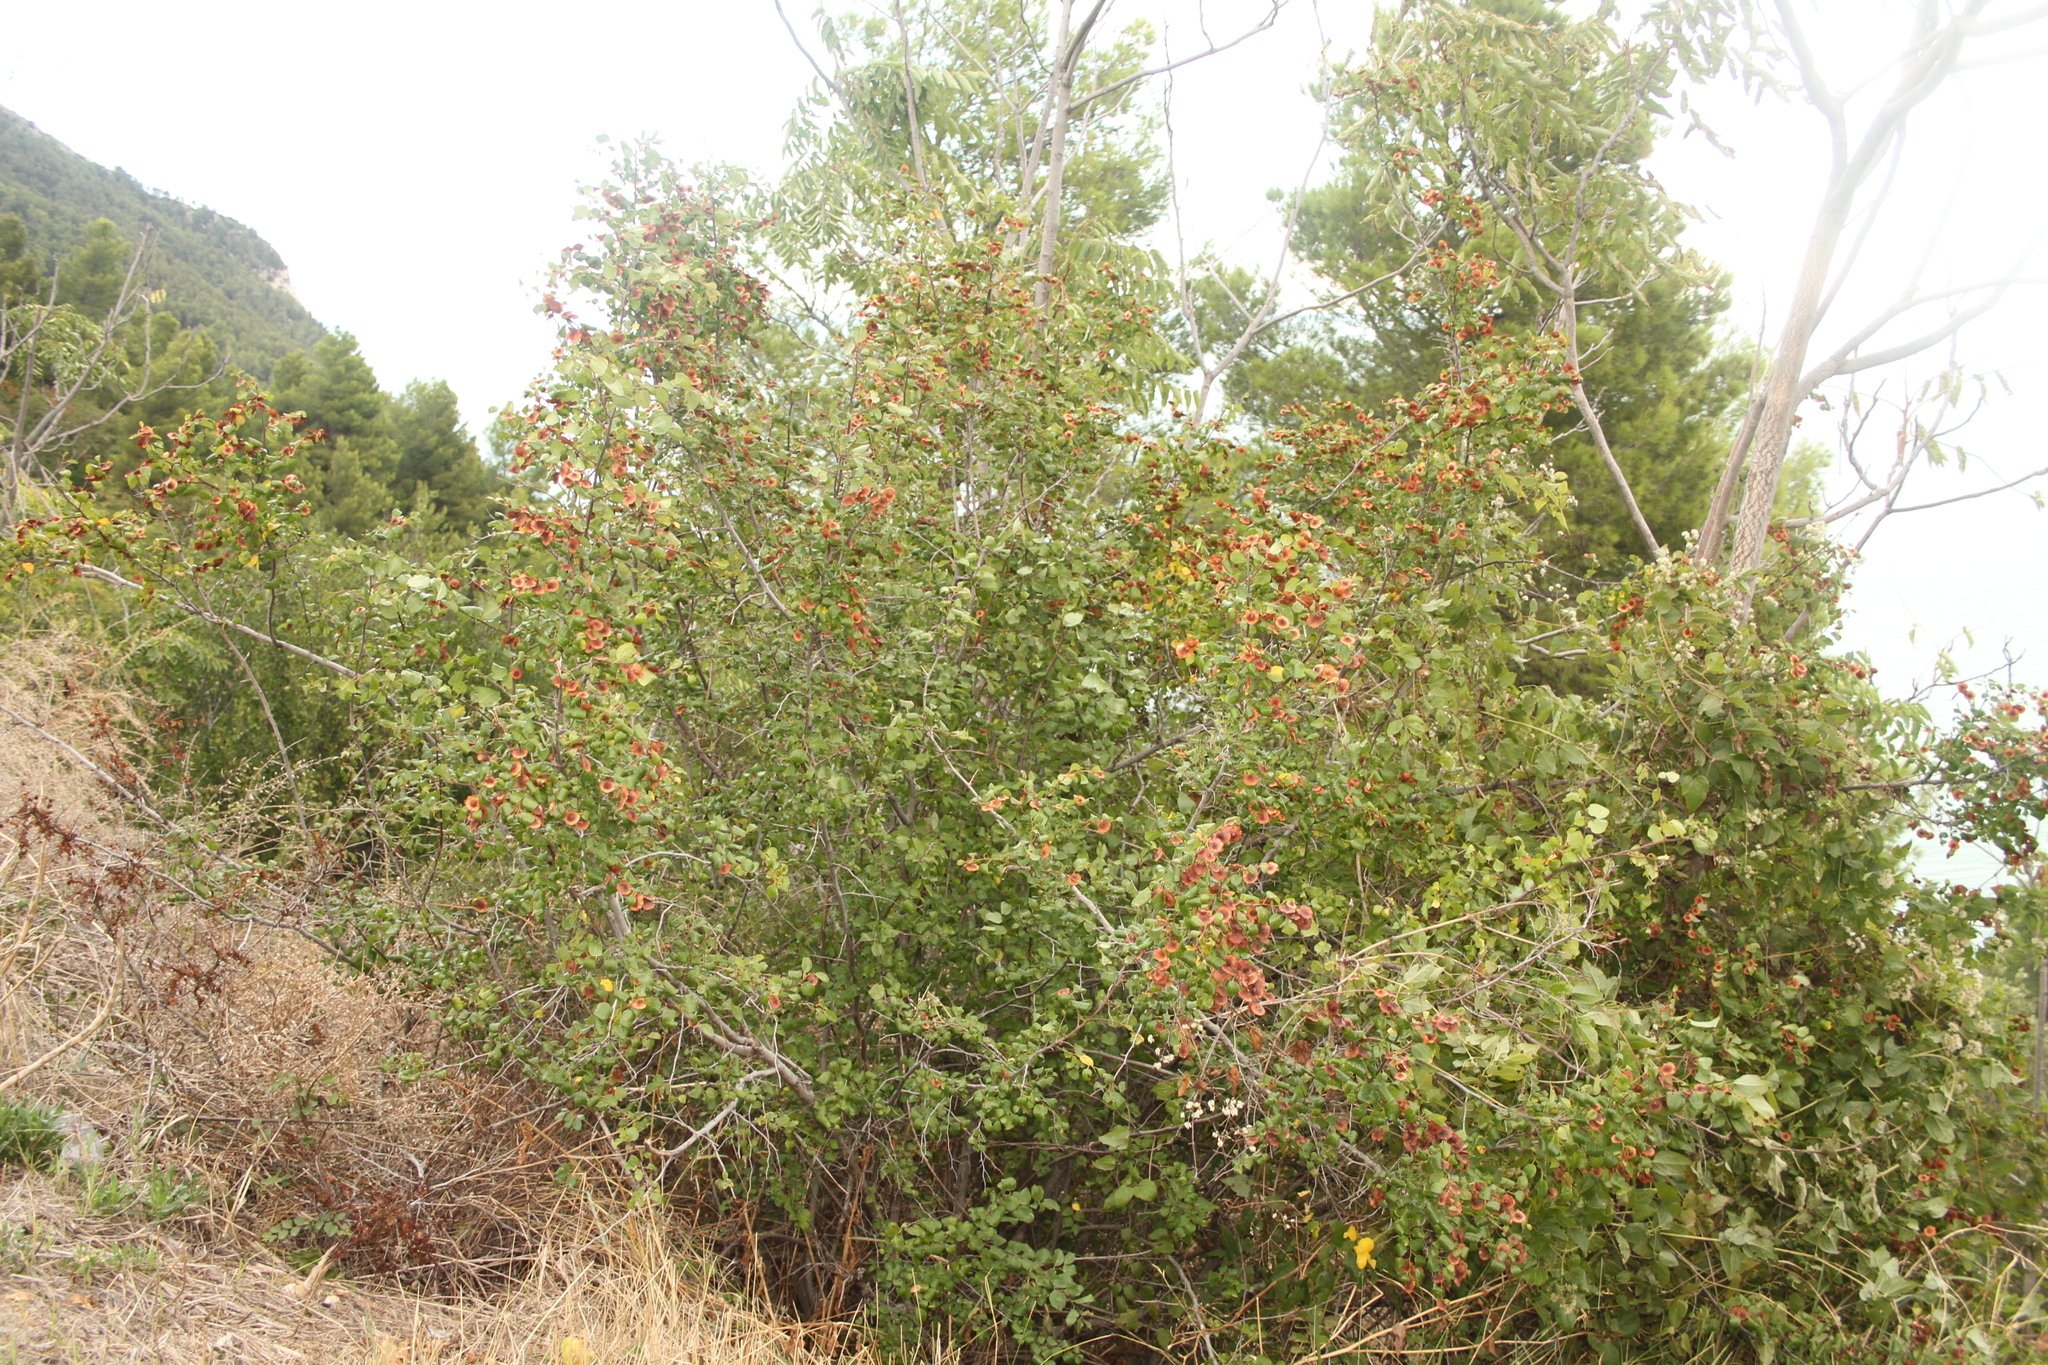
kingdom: Plantae
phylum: Tracheophyta
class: Magnoliopsida
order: Rosales
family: Rhamnaceae
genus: Paliurus
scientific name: Paliurus spina-christi
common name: Jeruselem thorn
